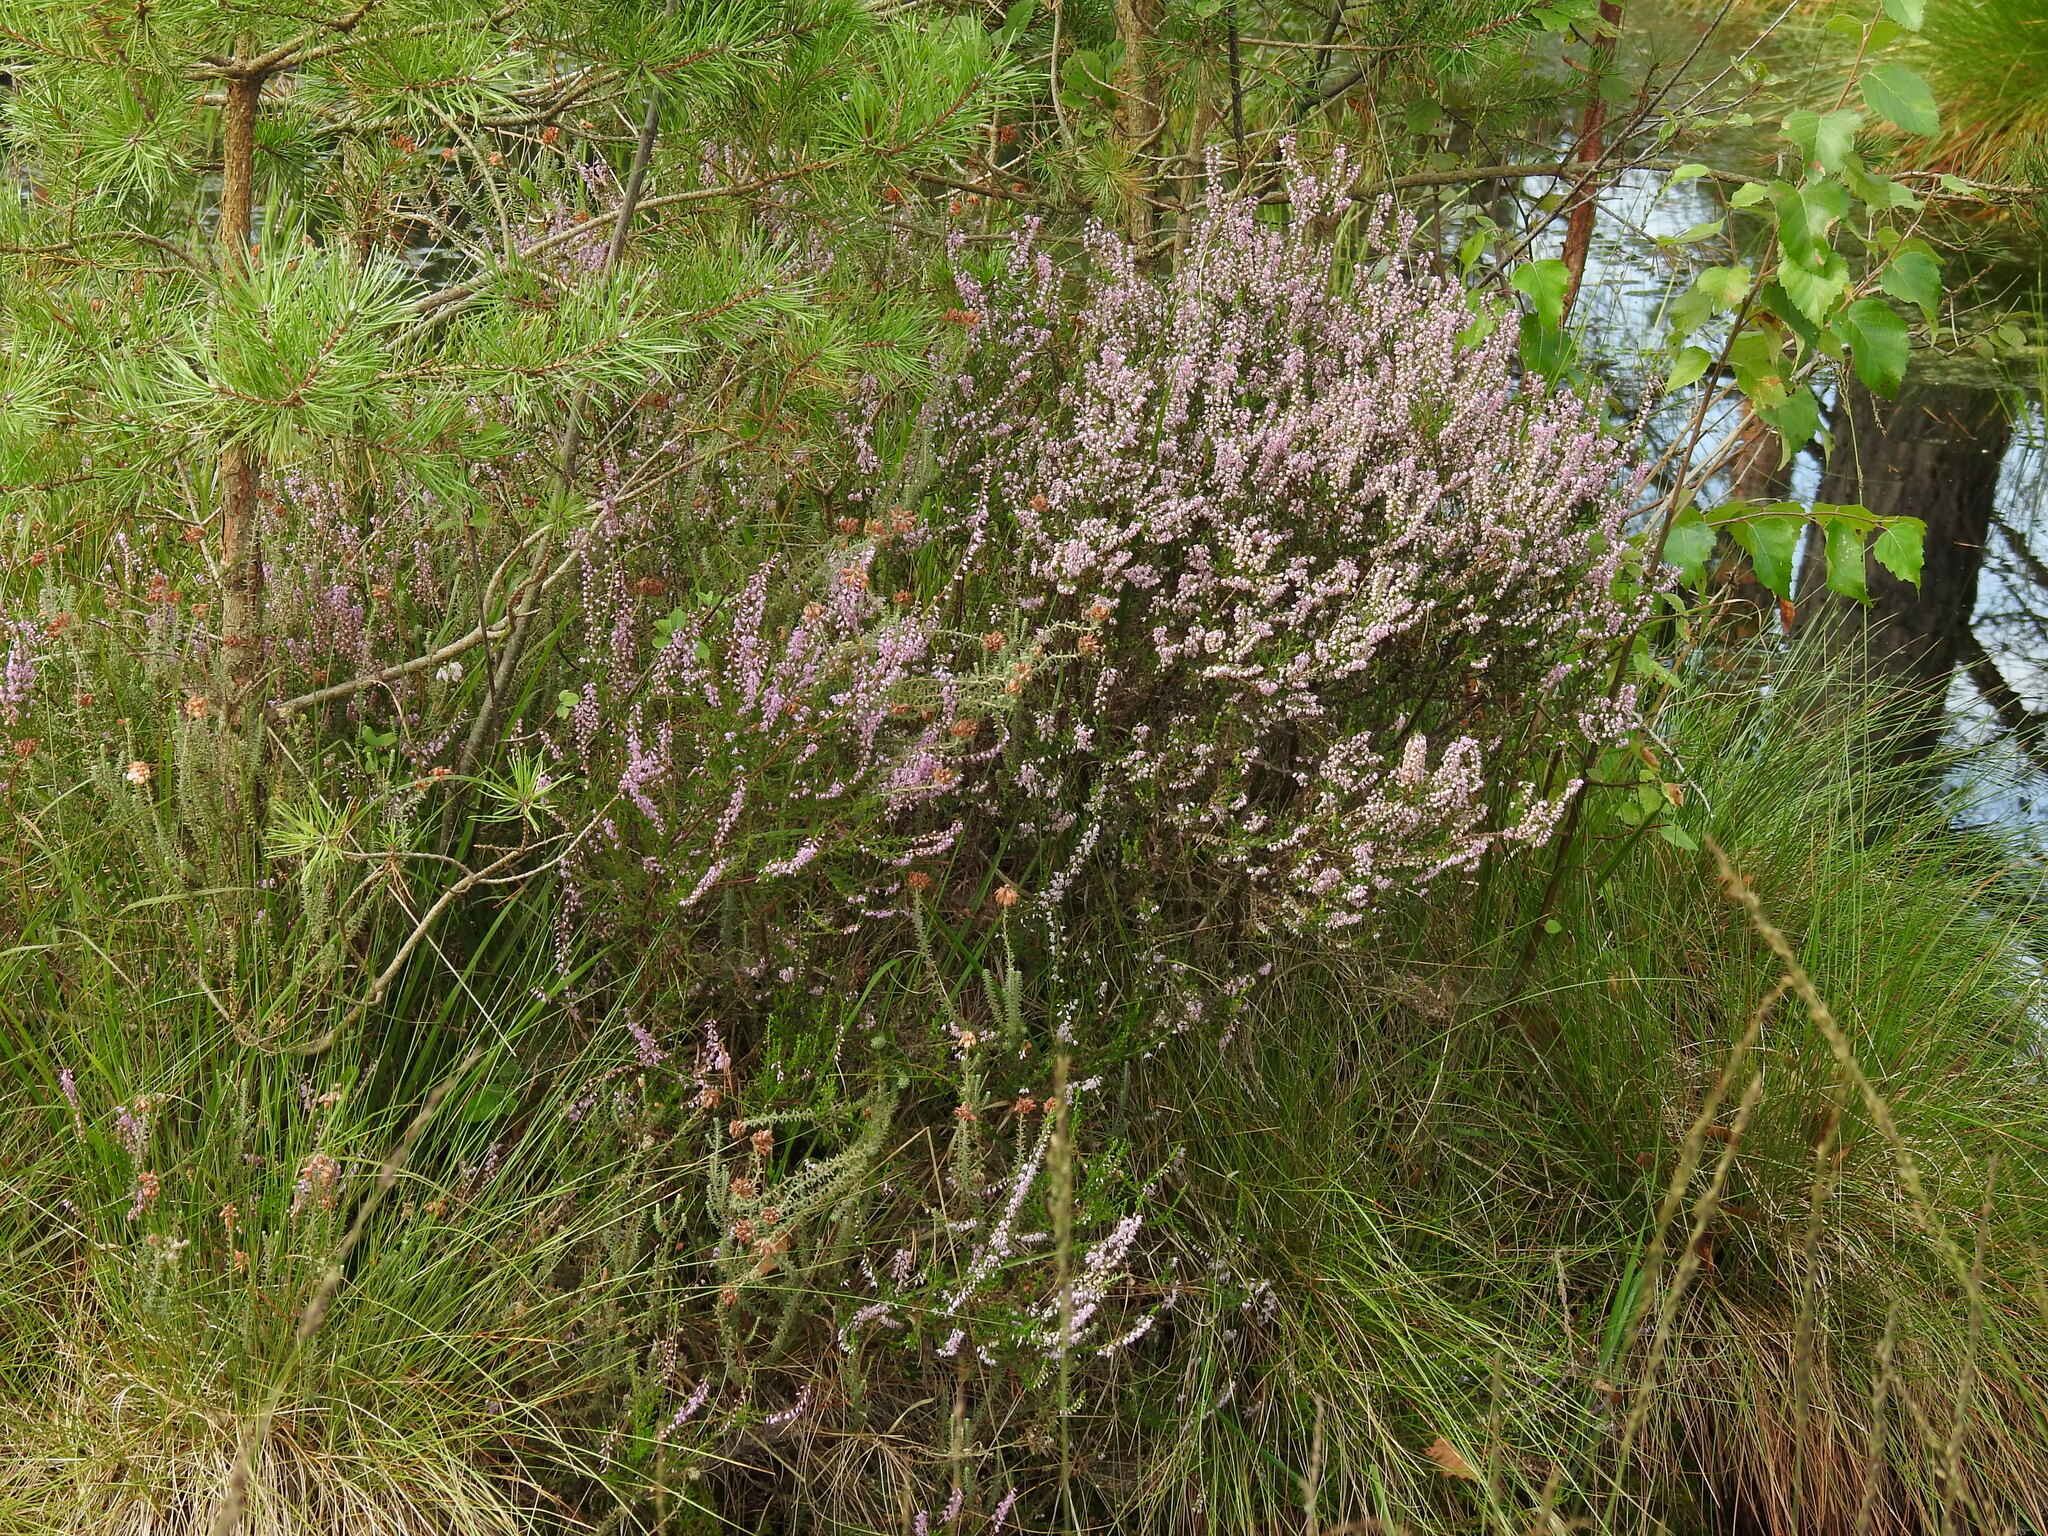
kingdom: Plantae
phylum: Tracheophyta
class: Magnoliopsida
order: Ericales
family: Ericaceae
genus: Calluna
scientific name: Calluna vulgaris
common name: Heather
